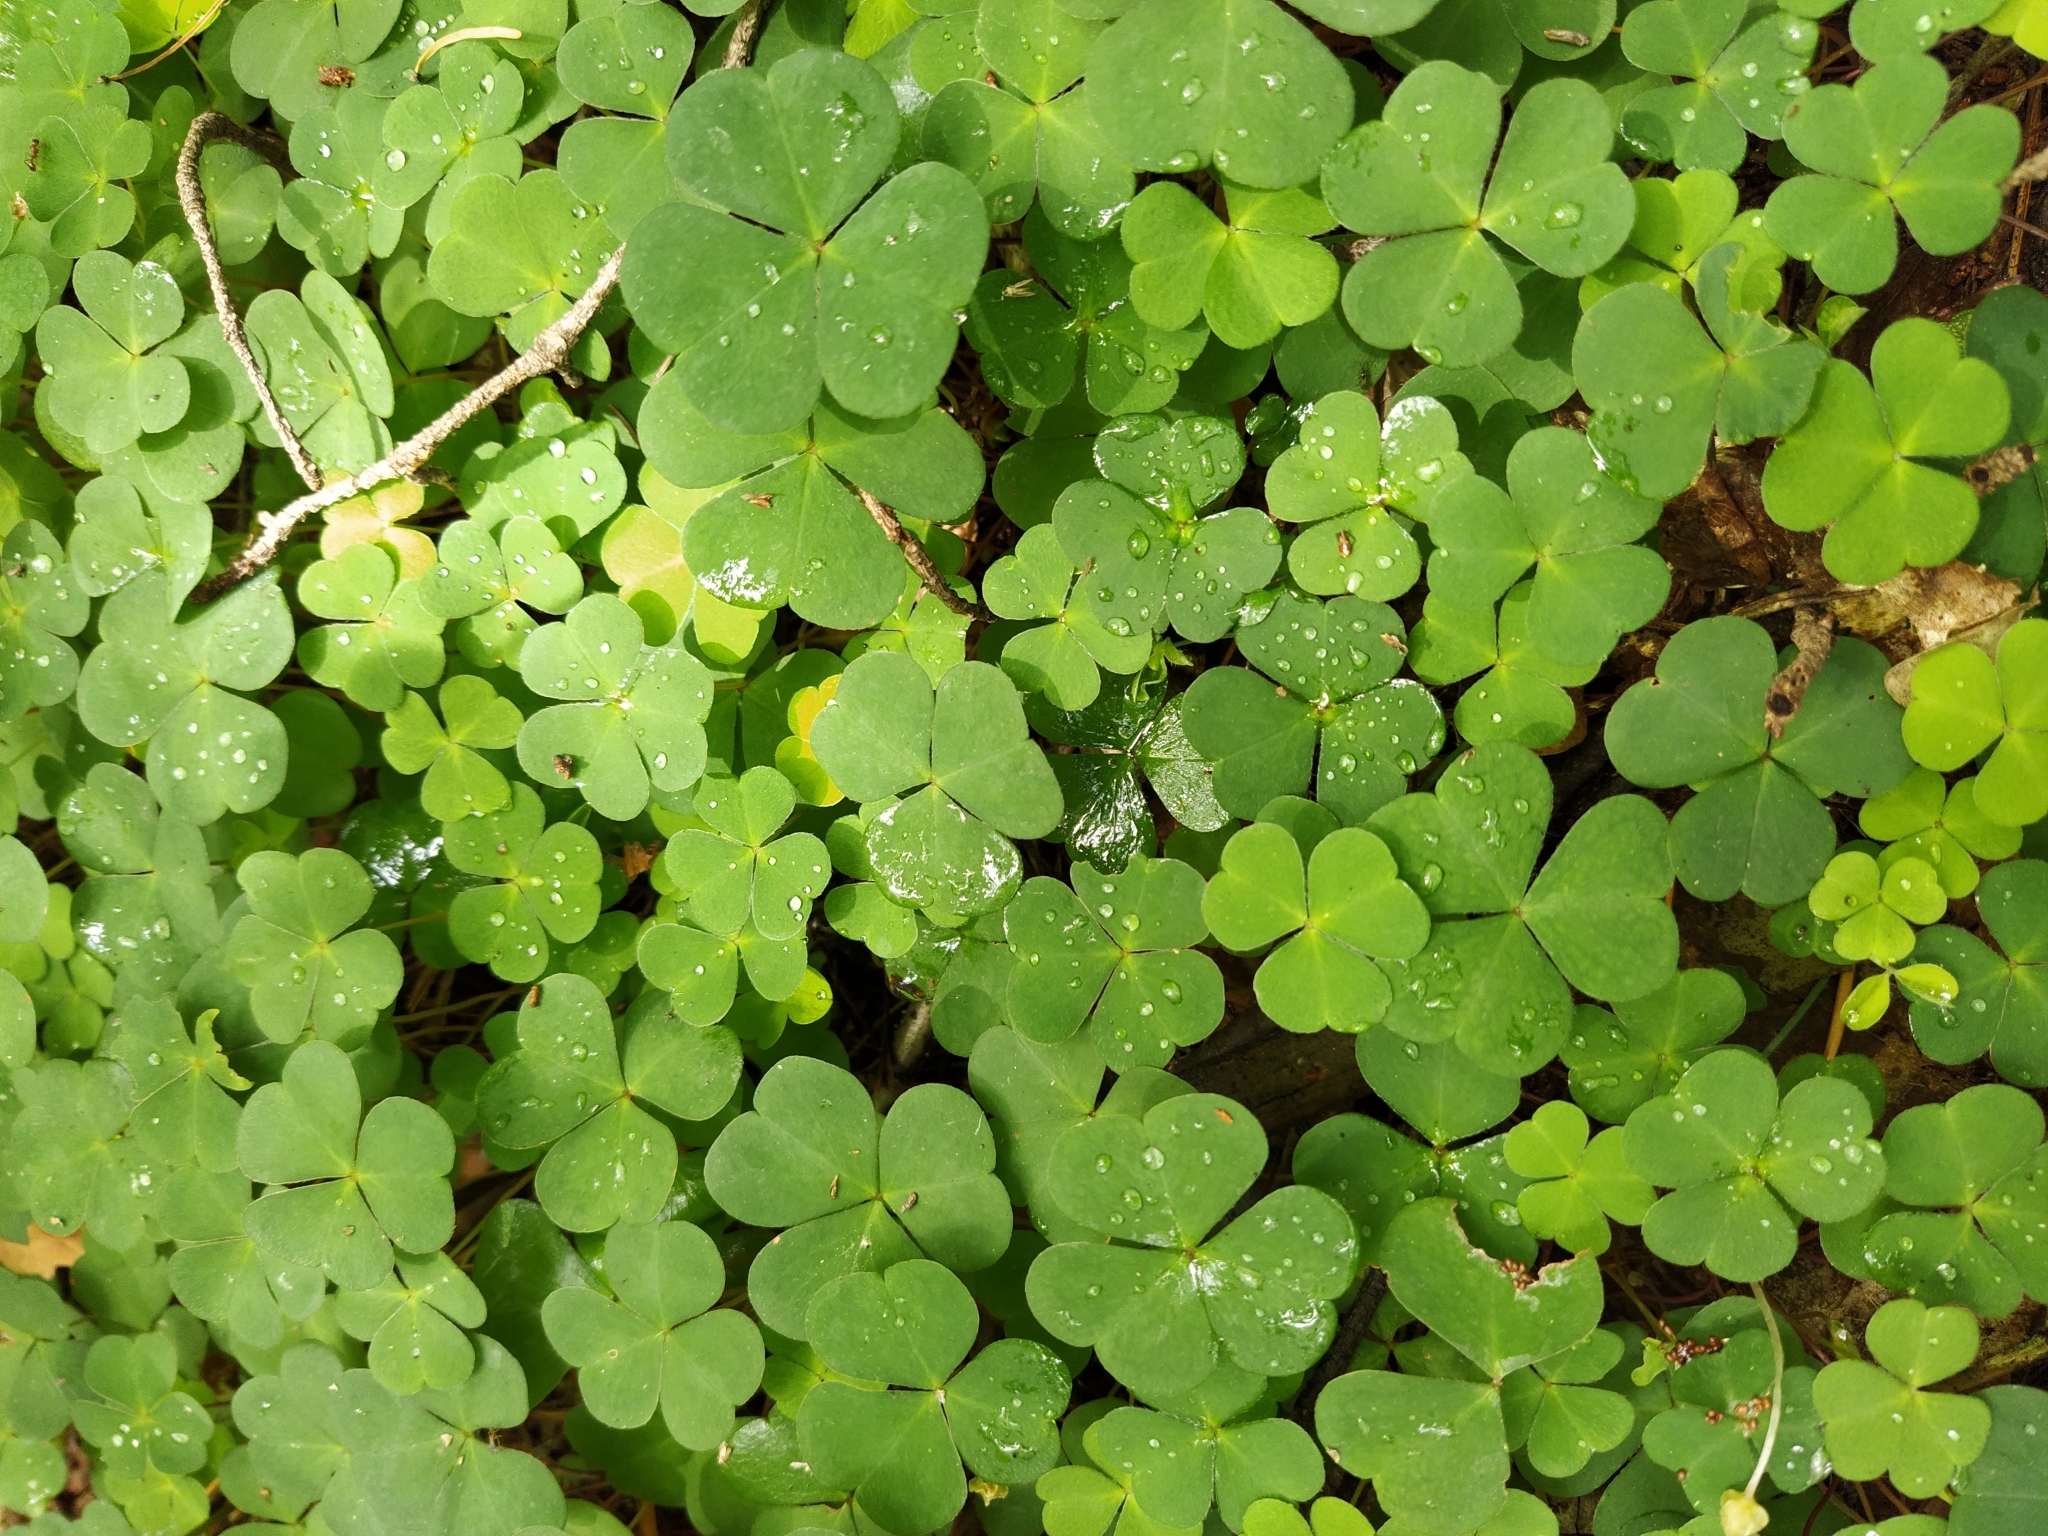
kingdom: Plantae
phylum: Tracheophyta
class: Magnoliopsida
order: Oxalidales
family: Oxalidaceae
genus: Oxalis
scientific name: Oxalis acetosella
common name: Wood-sorrel
